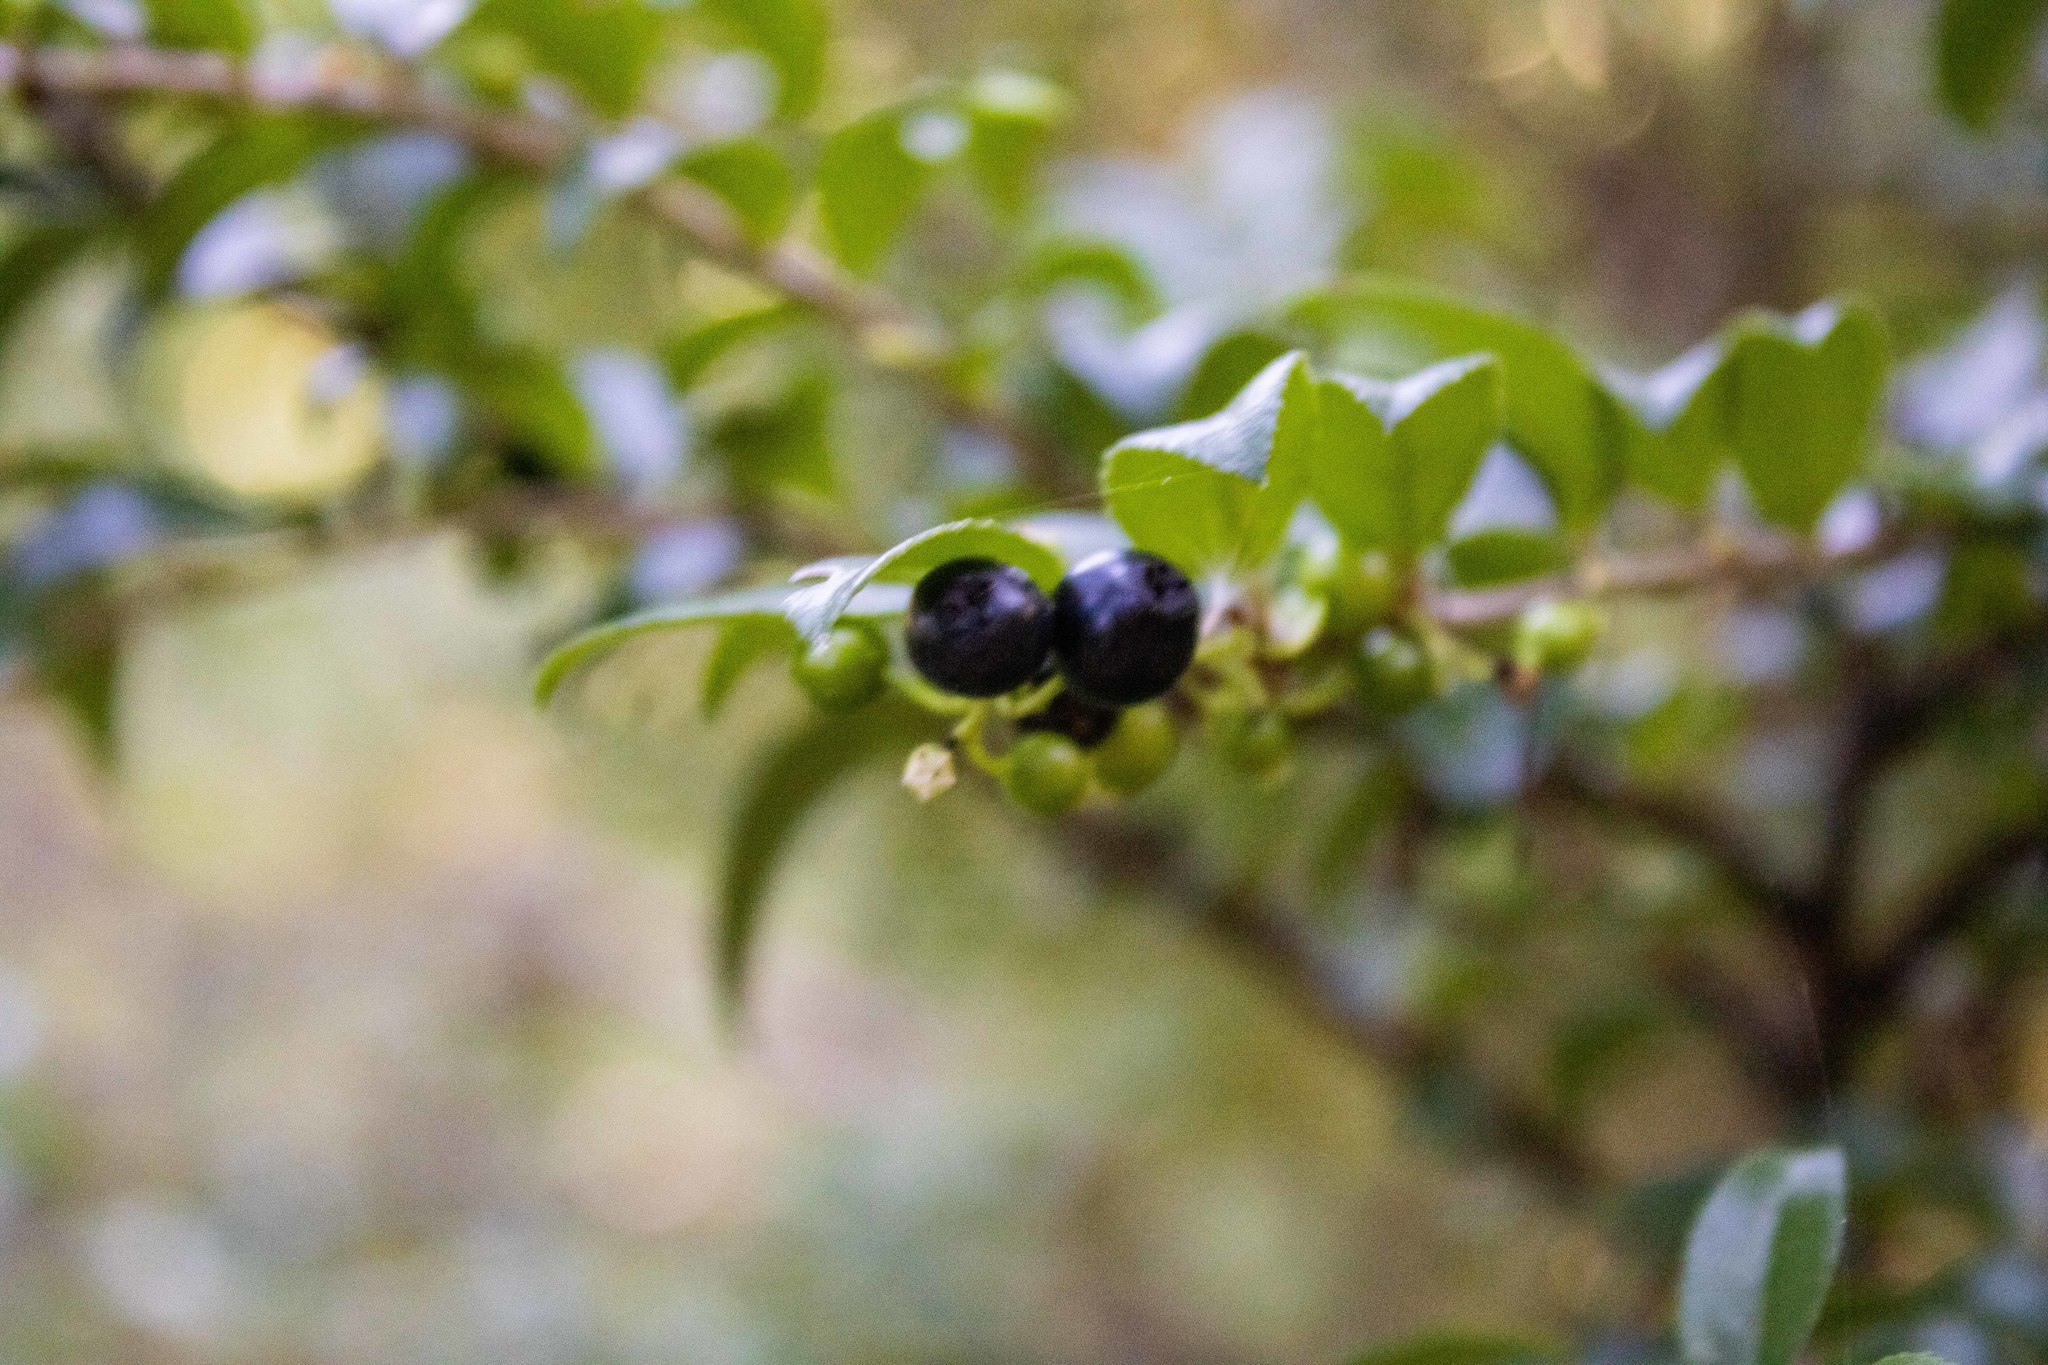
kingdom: Plantae
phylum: Tracheophyta
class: Magnoliopsida
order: Ericales
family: Ericaceae
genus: Vaccinium
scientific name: Vaccinium ovatum
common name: California-huckleberry
